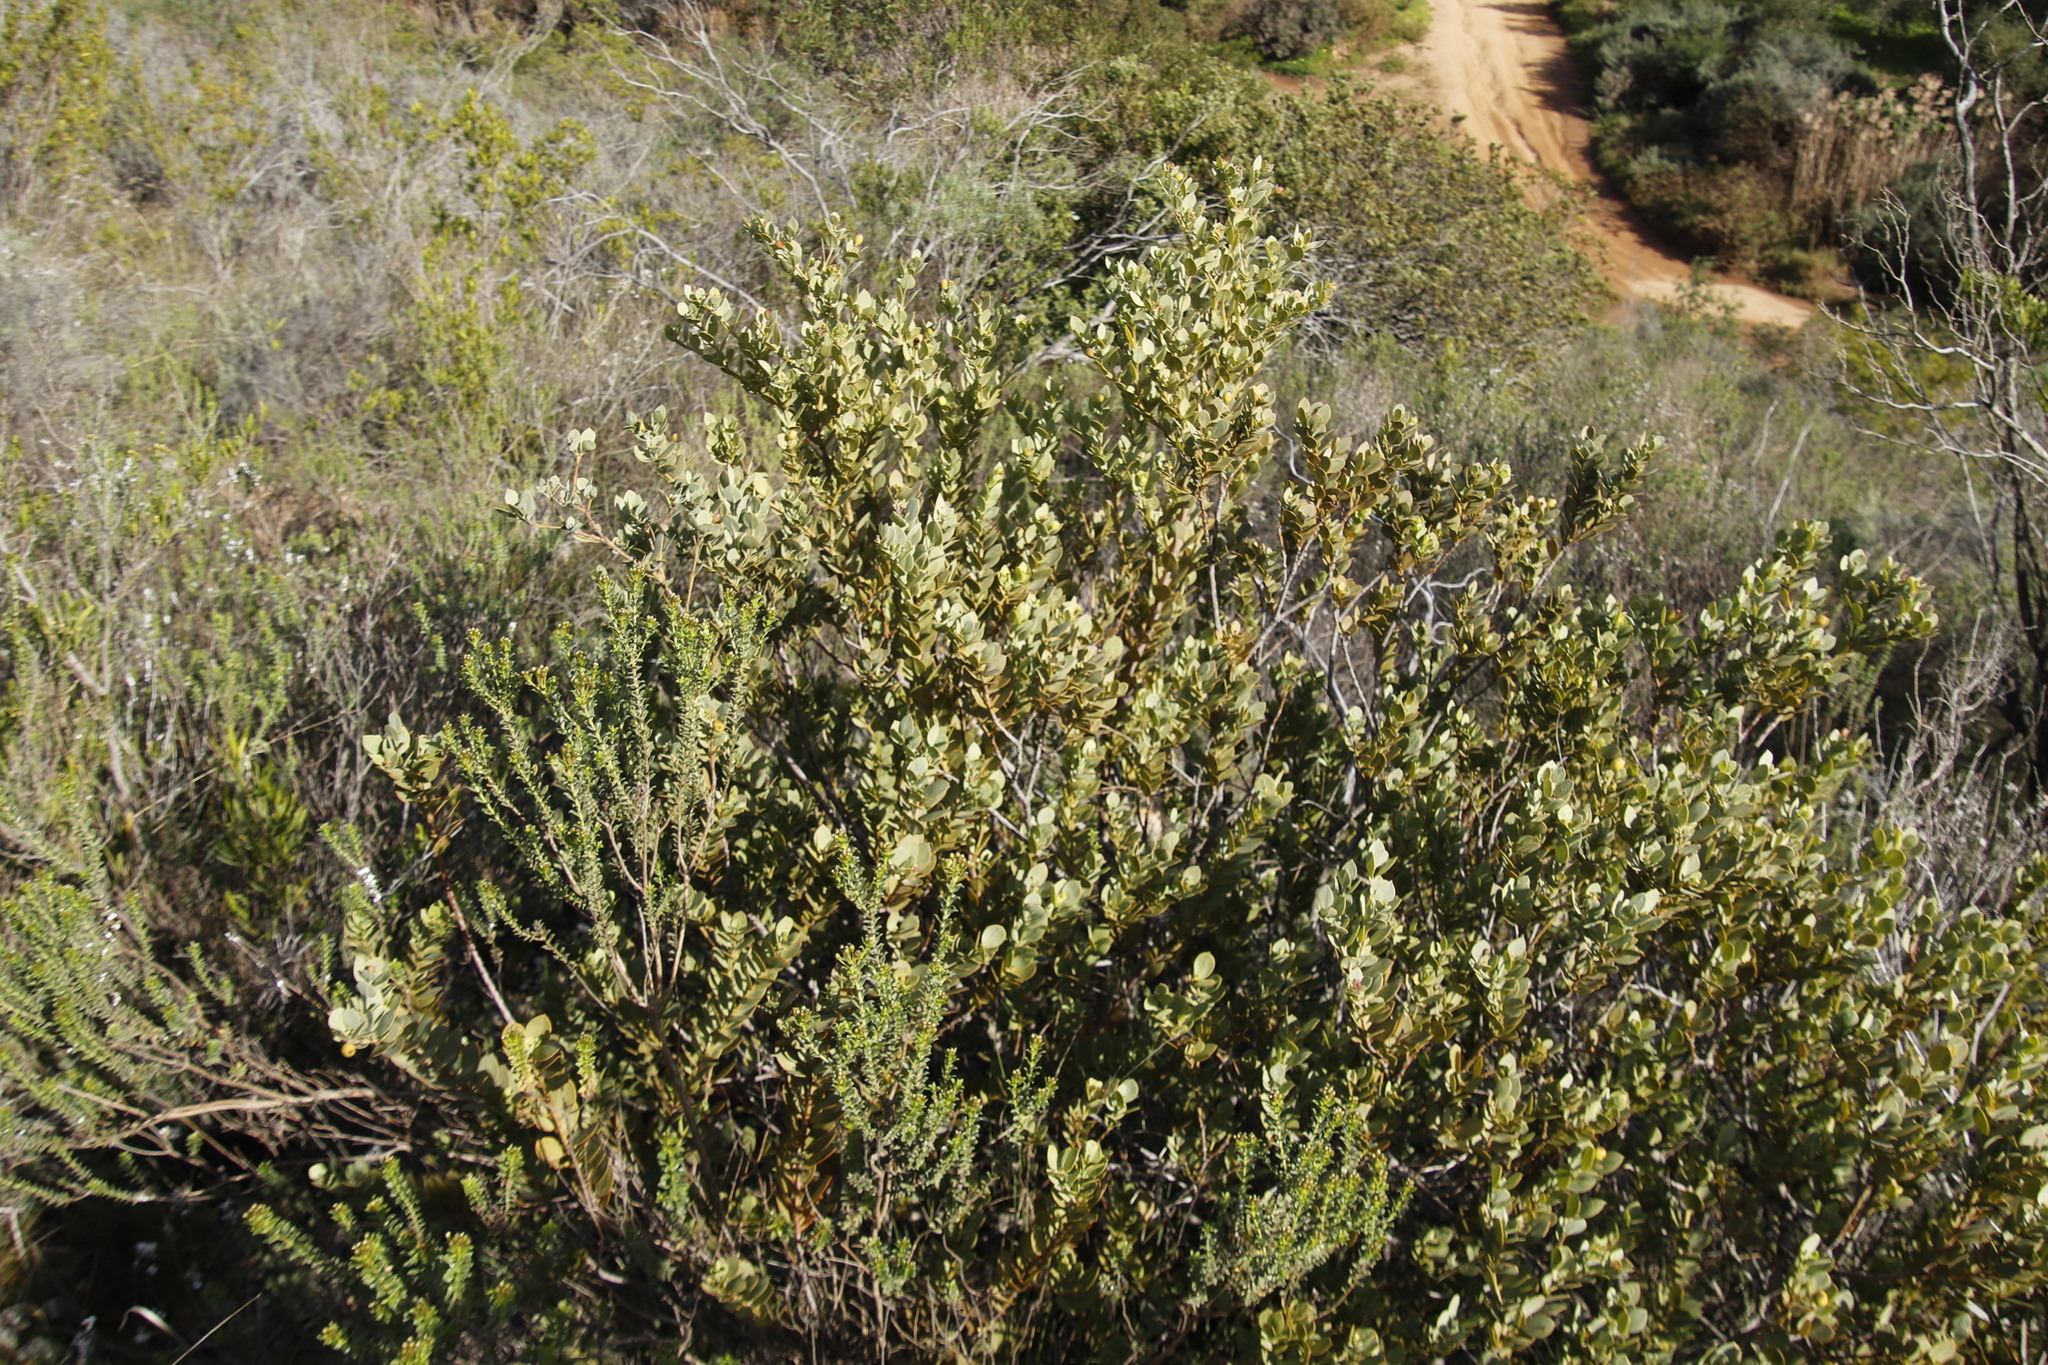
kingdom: Plantae
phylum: Tracheophyta
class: Magnoliopsida
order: Santalales
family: Santalaceae
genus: Osyris
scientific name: Osyris compressa
